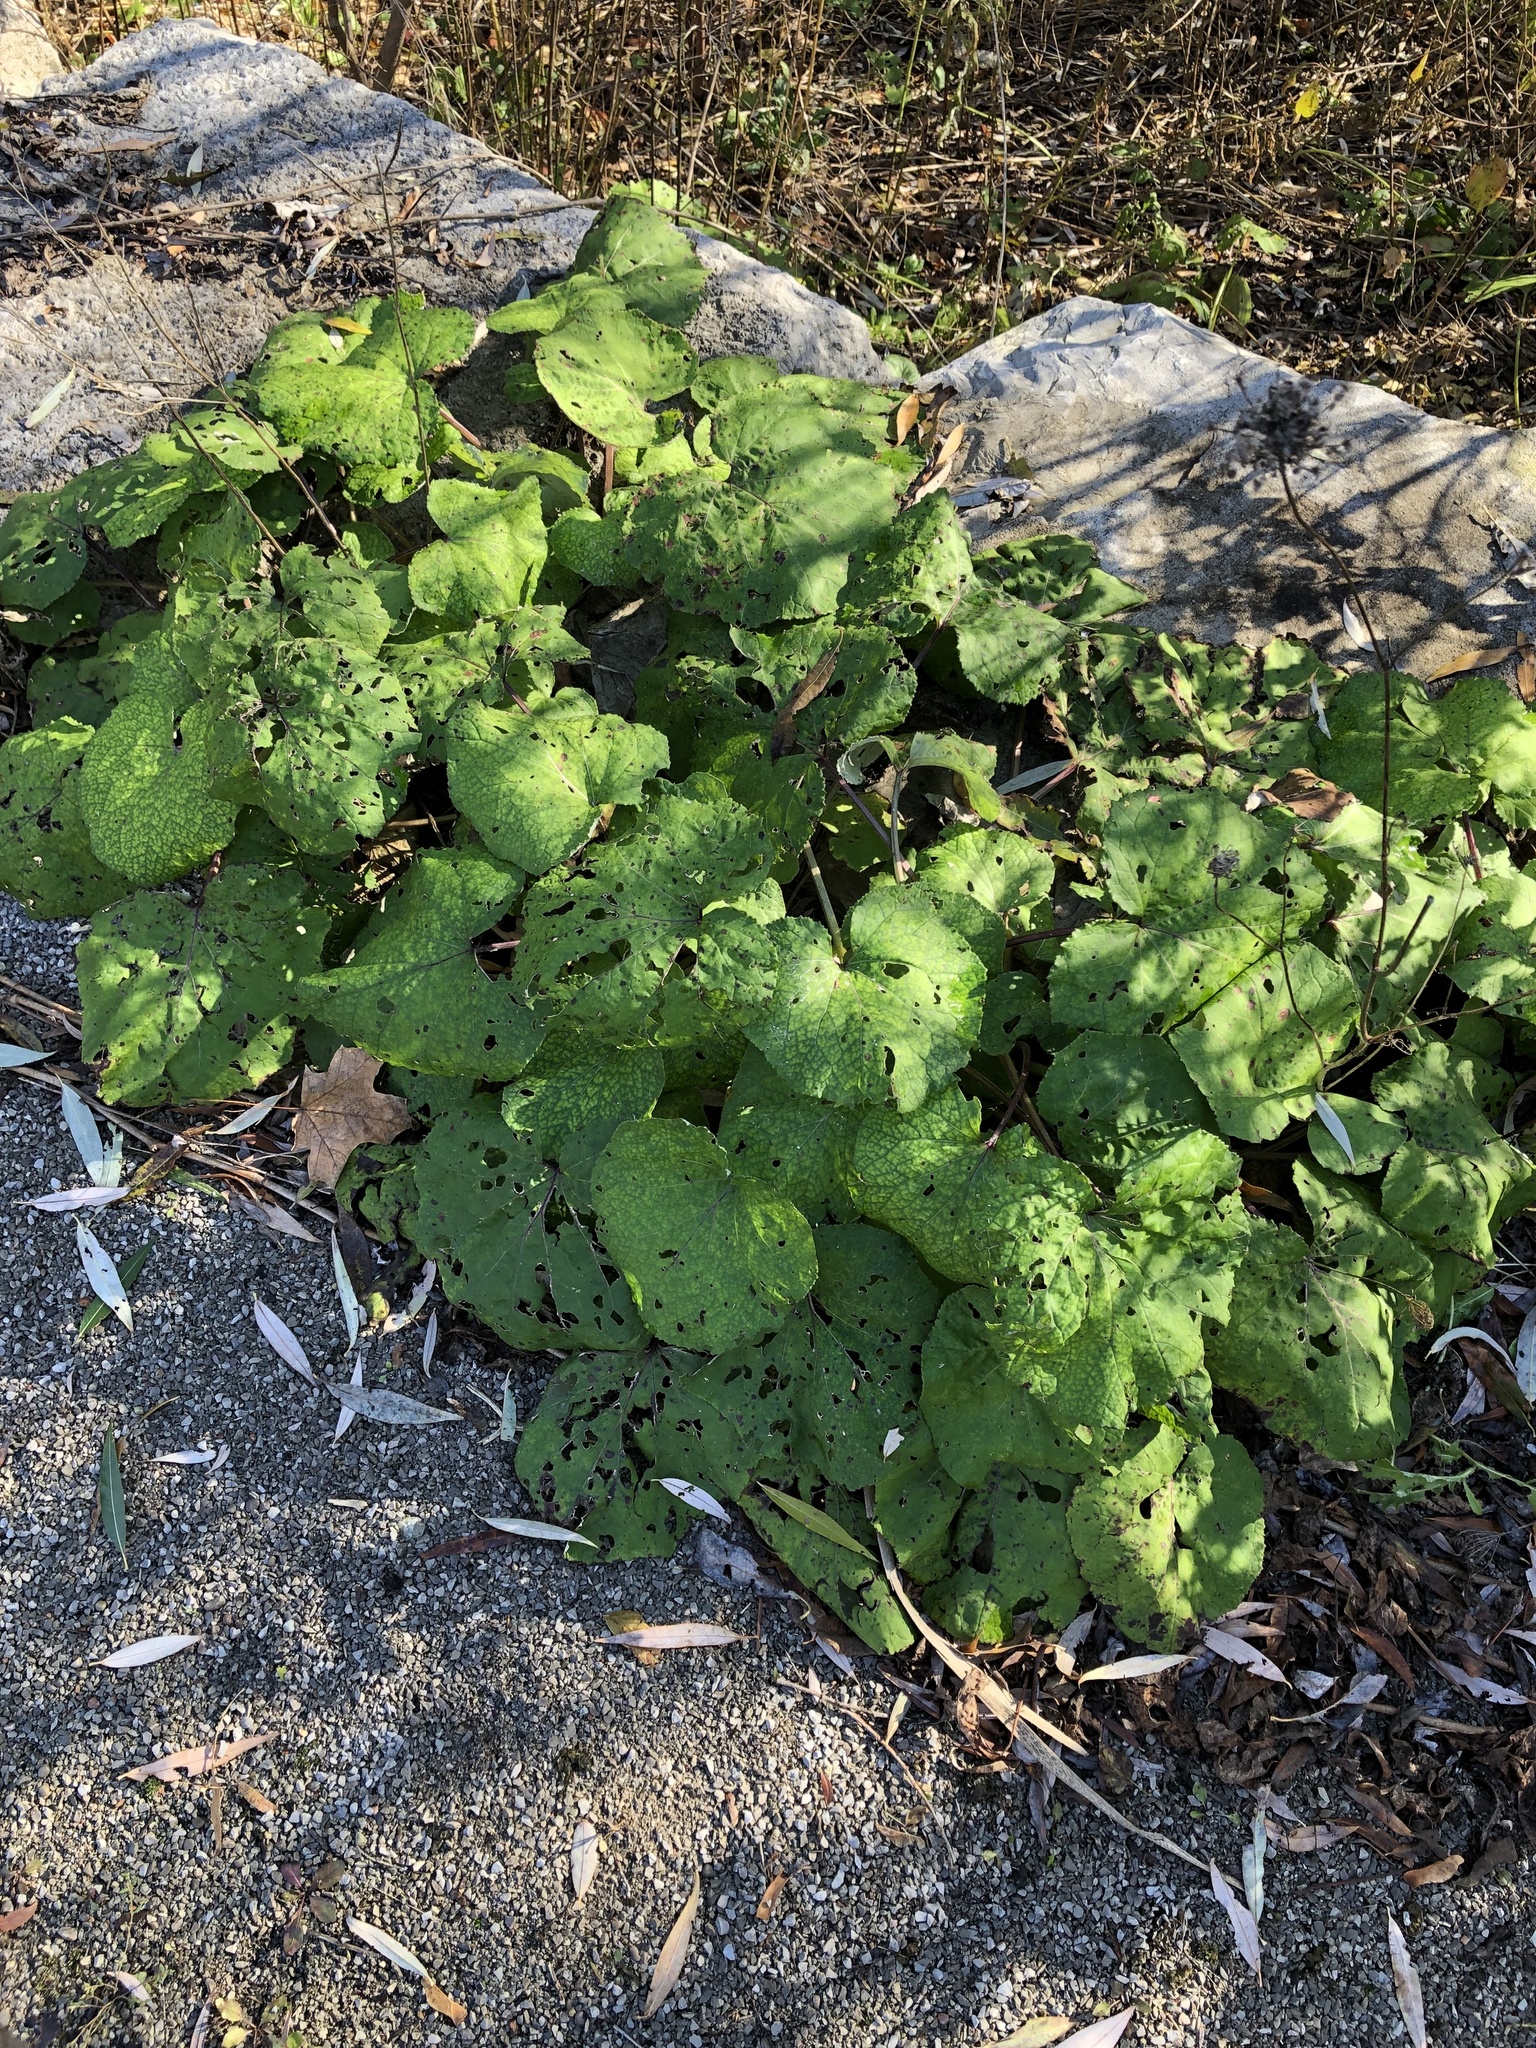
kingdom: Plantae
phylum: Tracheophyta
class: Magnoliopsida
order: Asterales
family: Asteraceae
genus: Tussilago
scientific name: Tussilago farfara
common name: Coltsfoot
